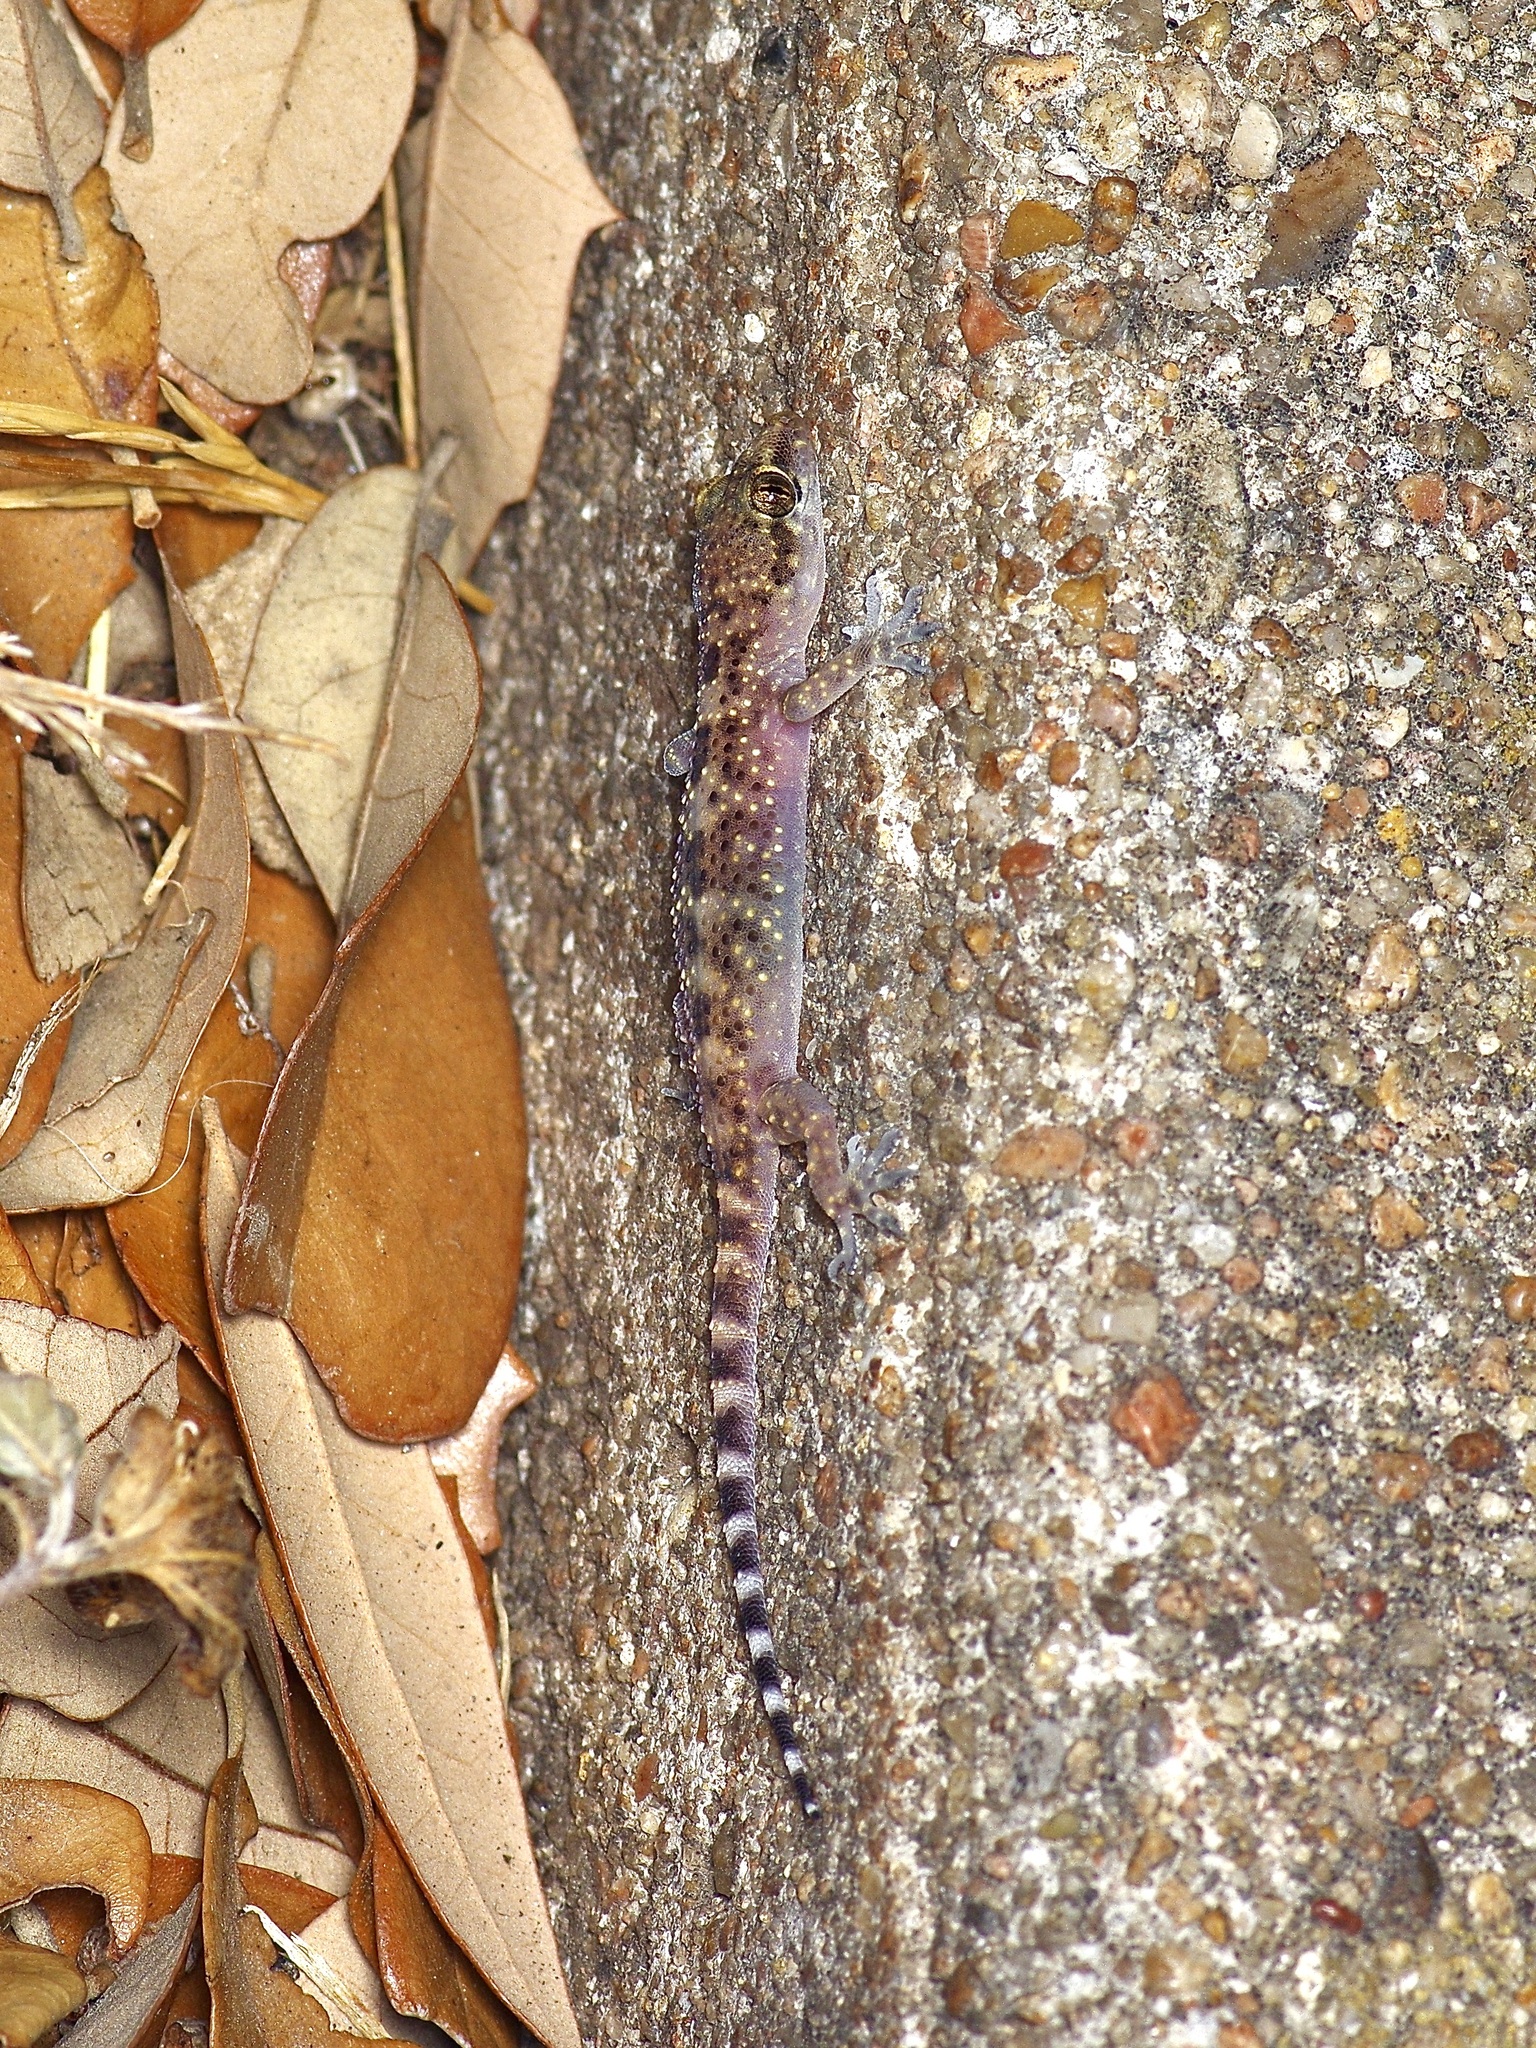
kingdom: Animalia
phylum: Chordata
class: Squamata
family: Gekkonidae
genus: Hemidactylus
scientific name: Hemidactylus turcicus
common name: Turkish gecko
